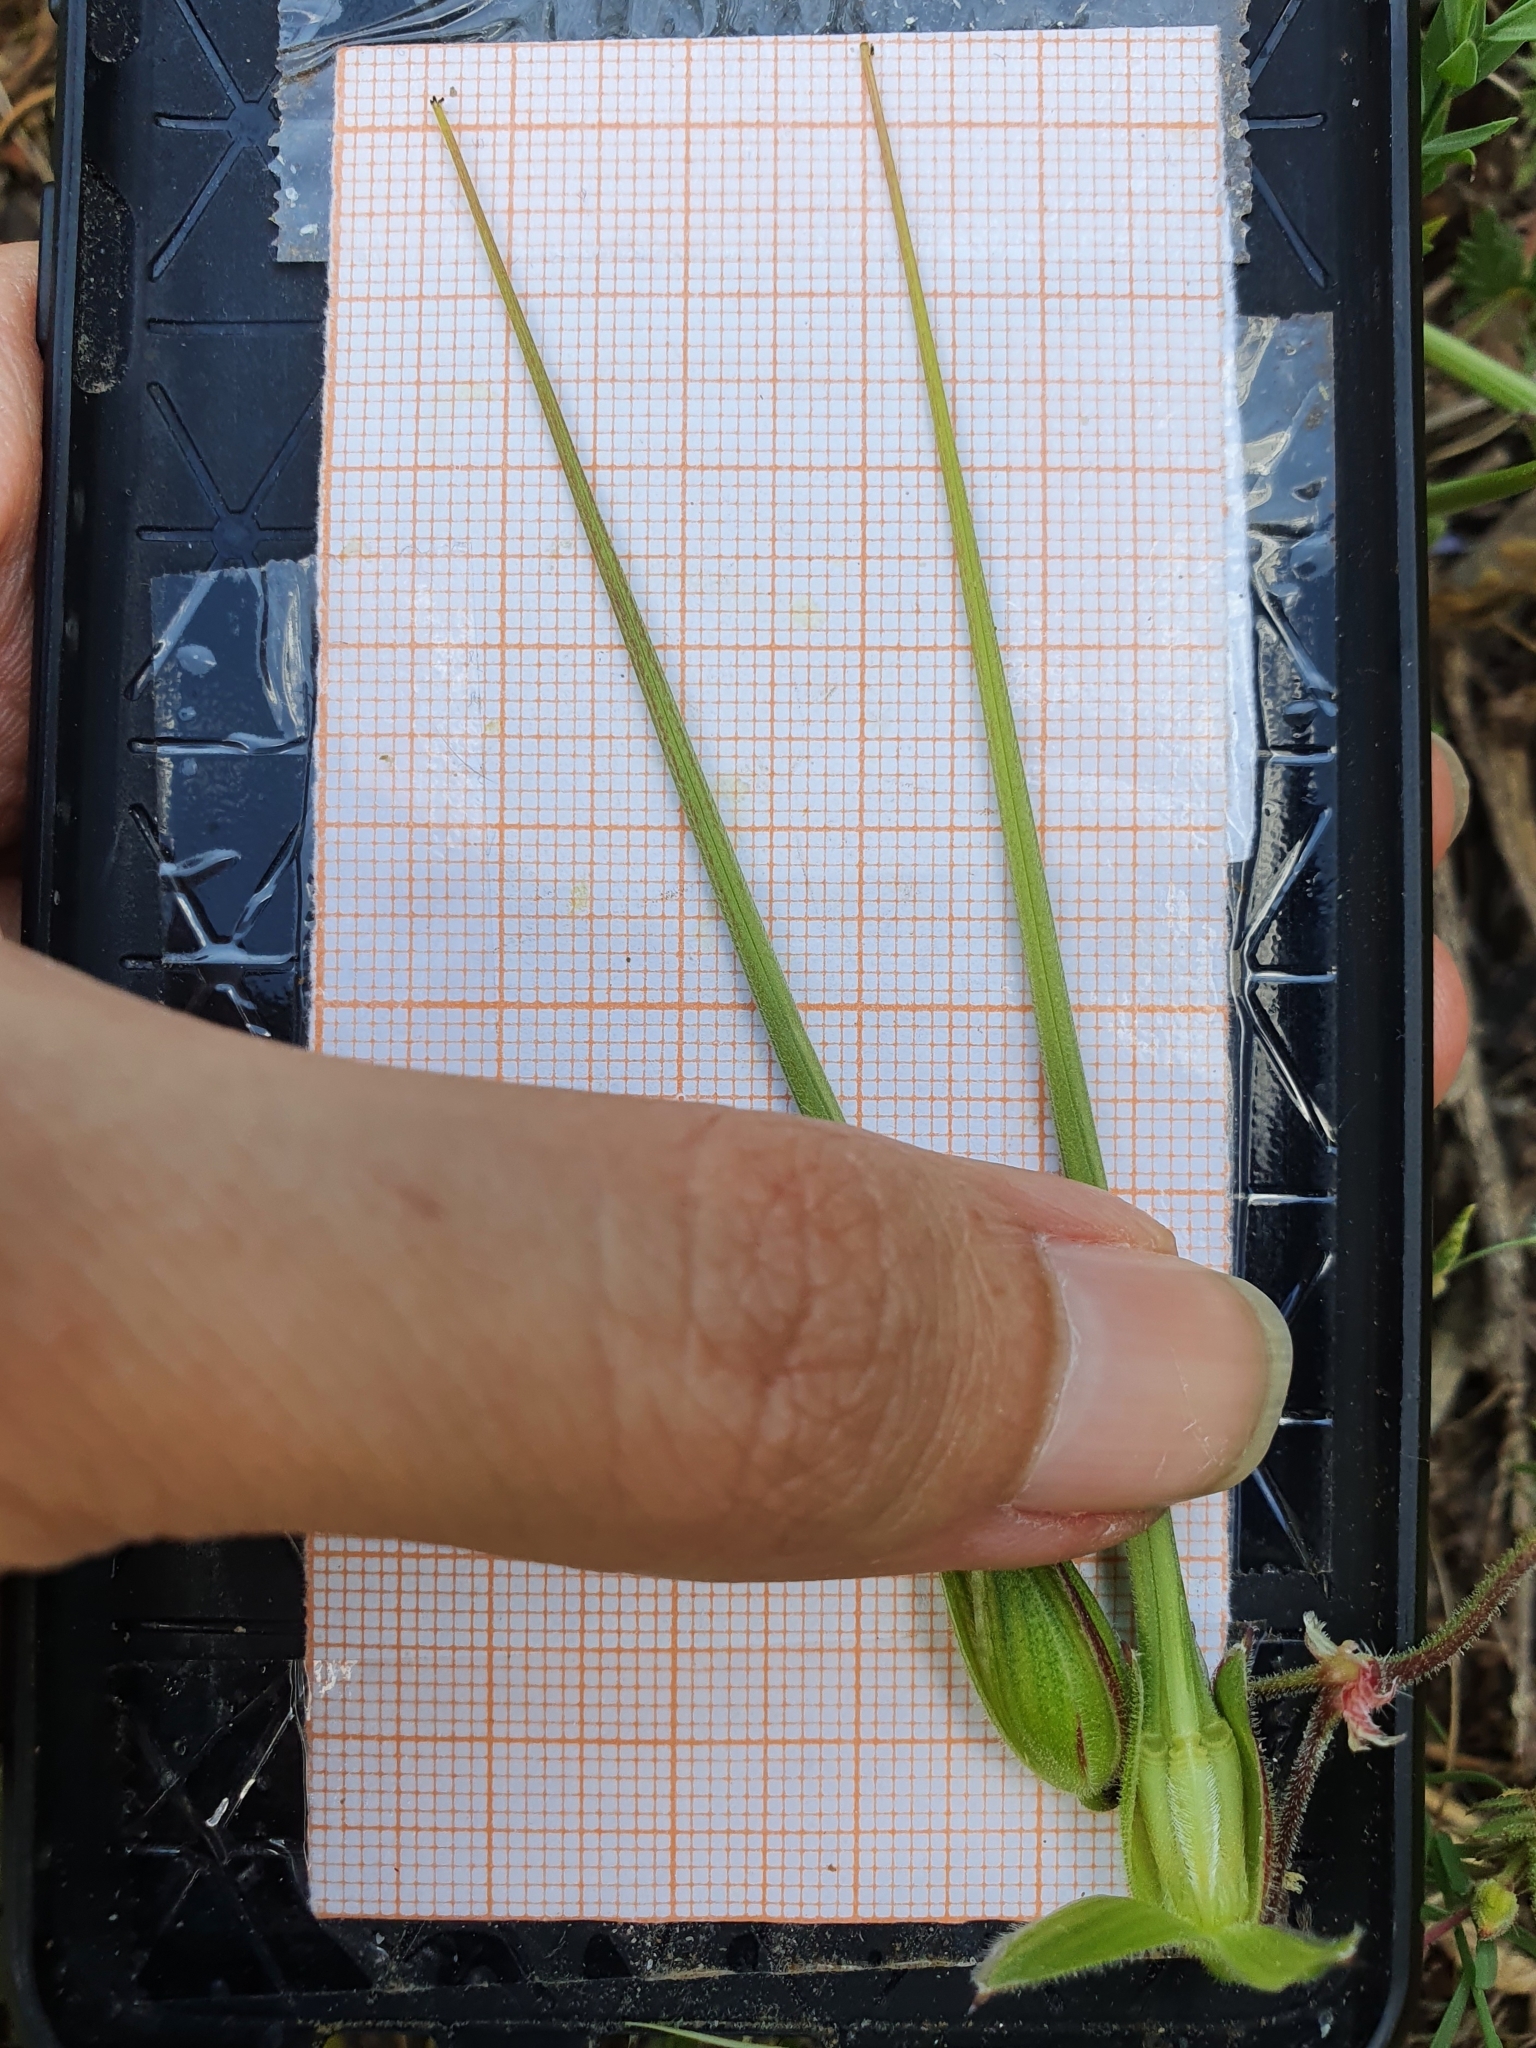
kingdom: Plantae
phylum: Tracheophyta
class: Magnoliopsida
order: Geraniales
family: Geraniaceae
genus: Erodium
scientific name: Erodium botrys
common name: Mediterranean stork's-bill
